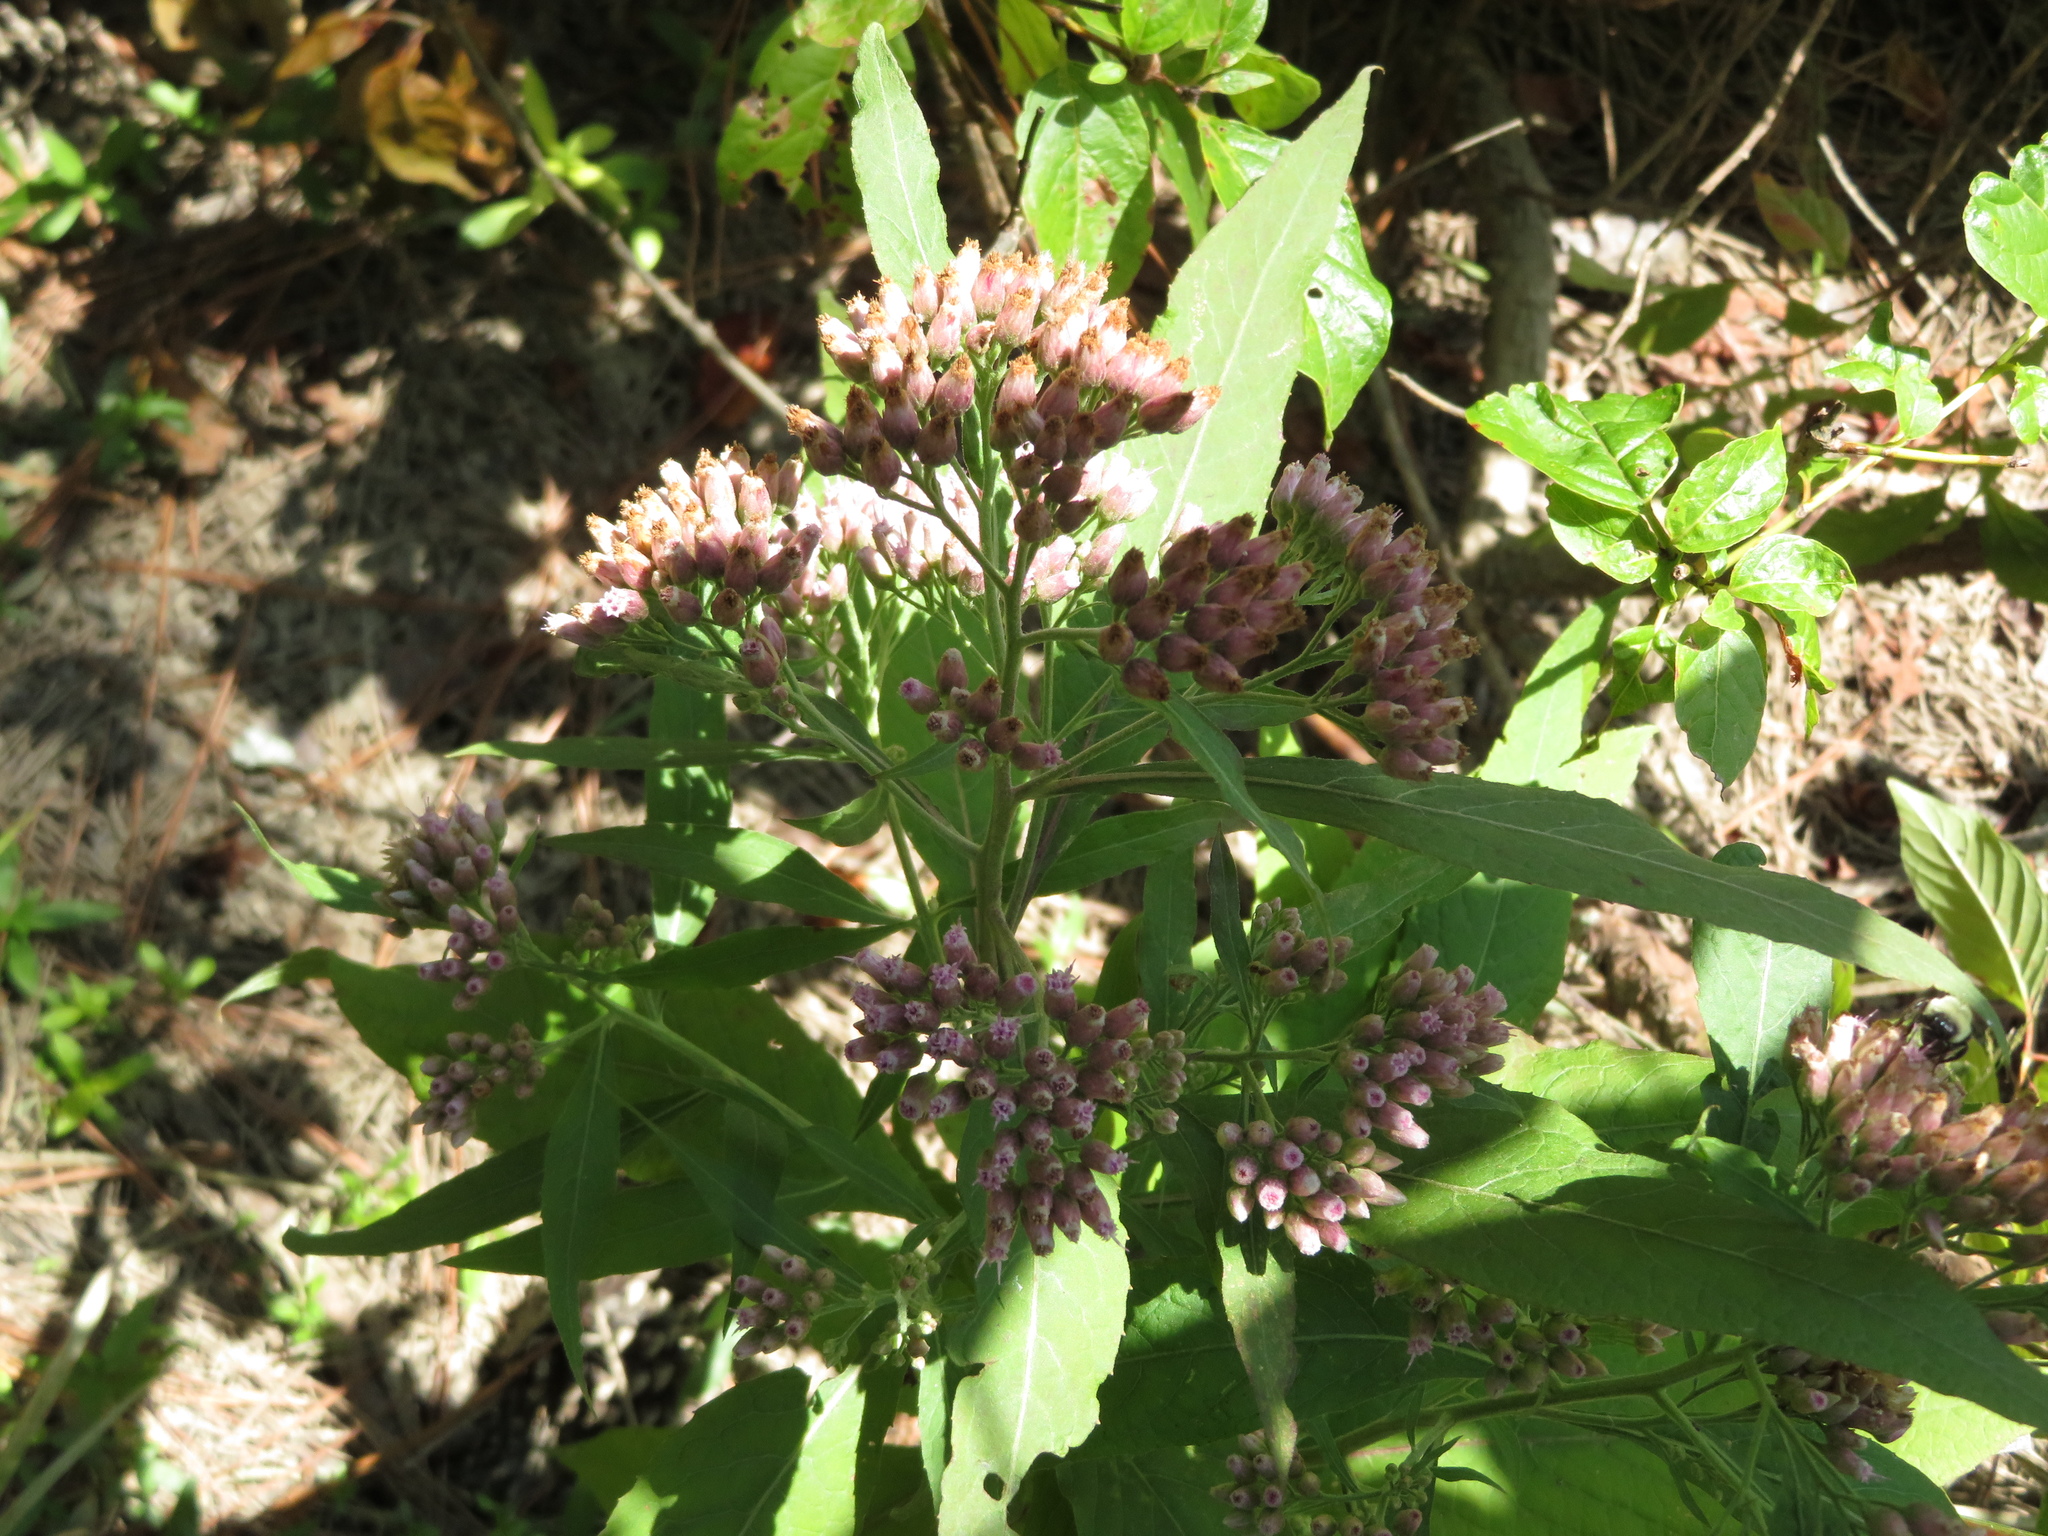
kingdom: Plantae
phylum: Tracheophyta
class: Magnoliopsida
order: Asterales
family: Asteraceae
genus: Pluchea
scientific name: Pluchea camphorata
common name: Camphor pluchea
